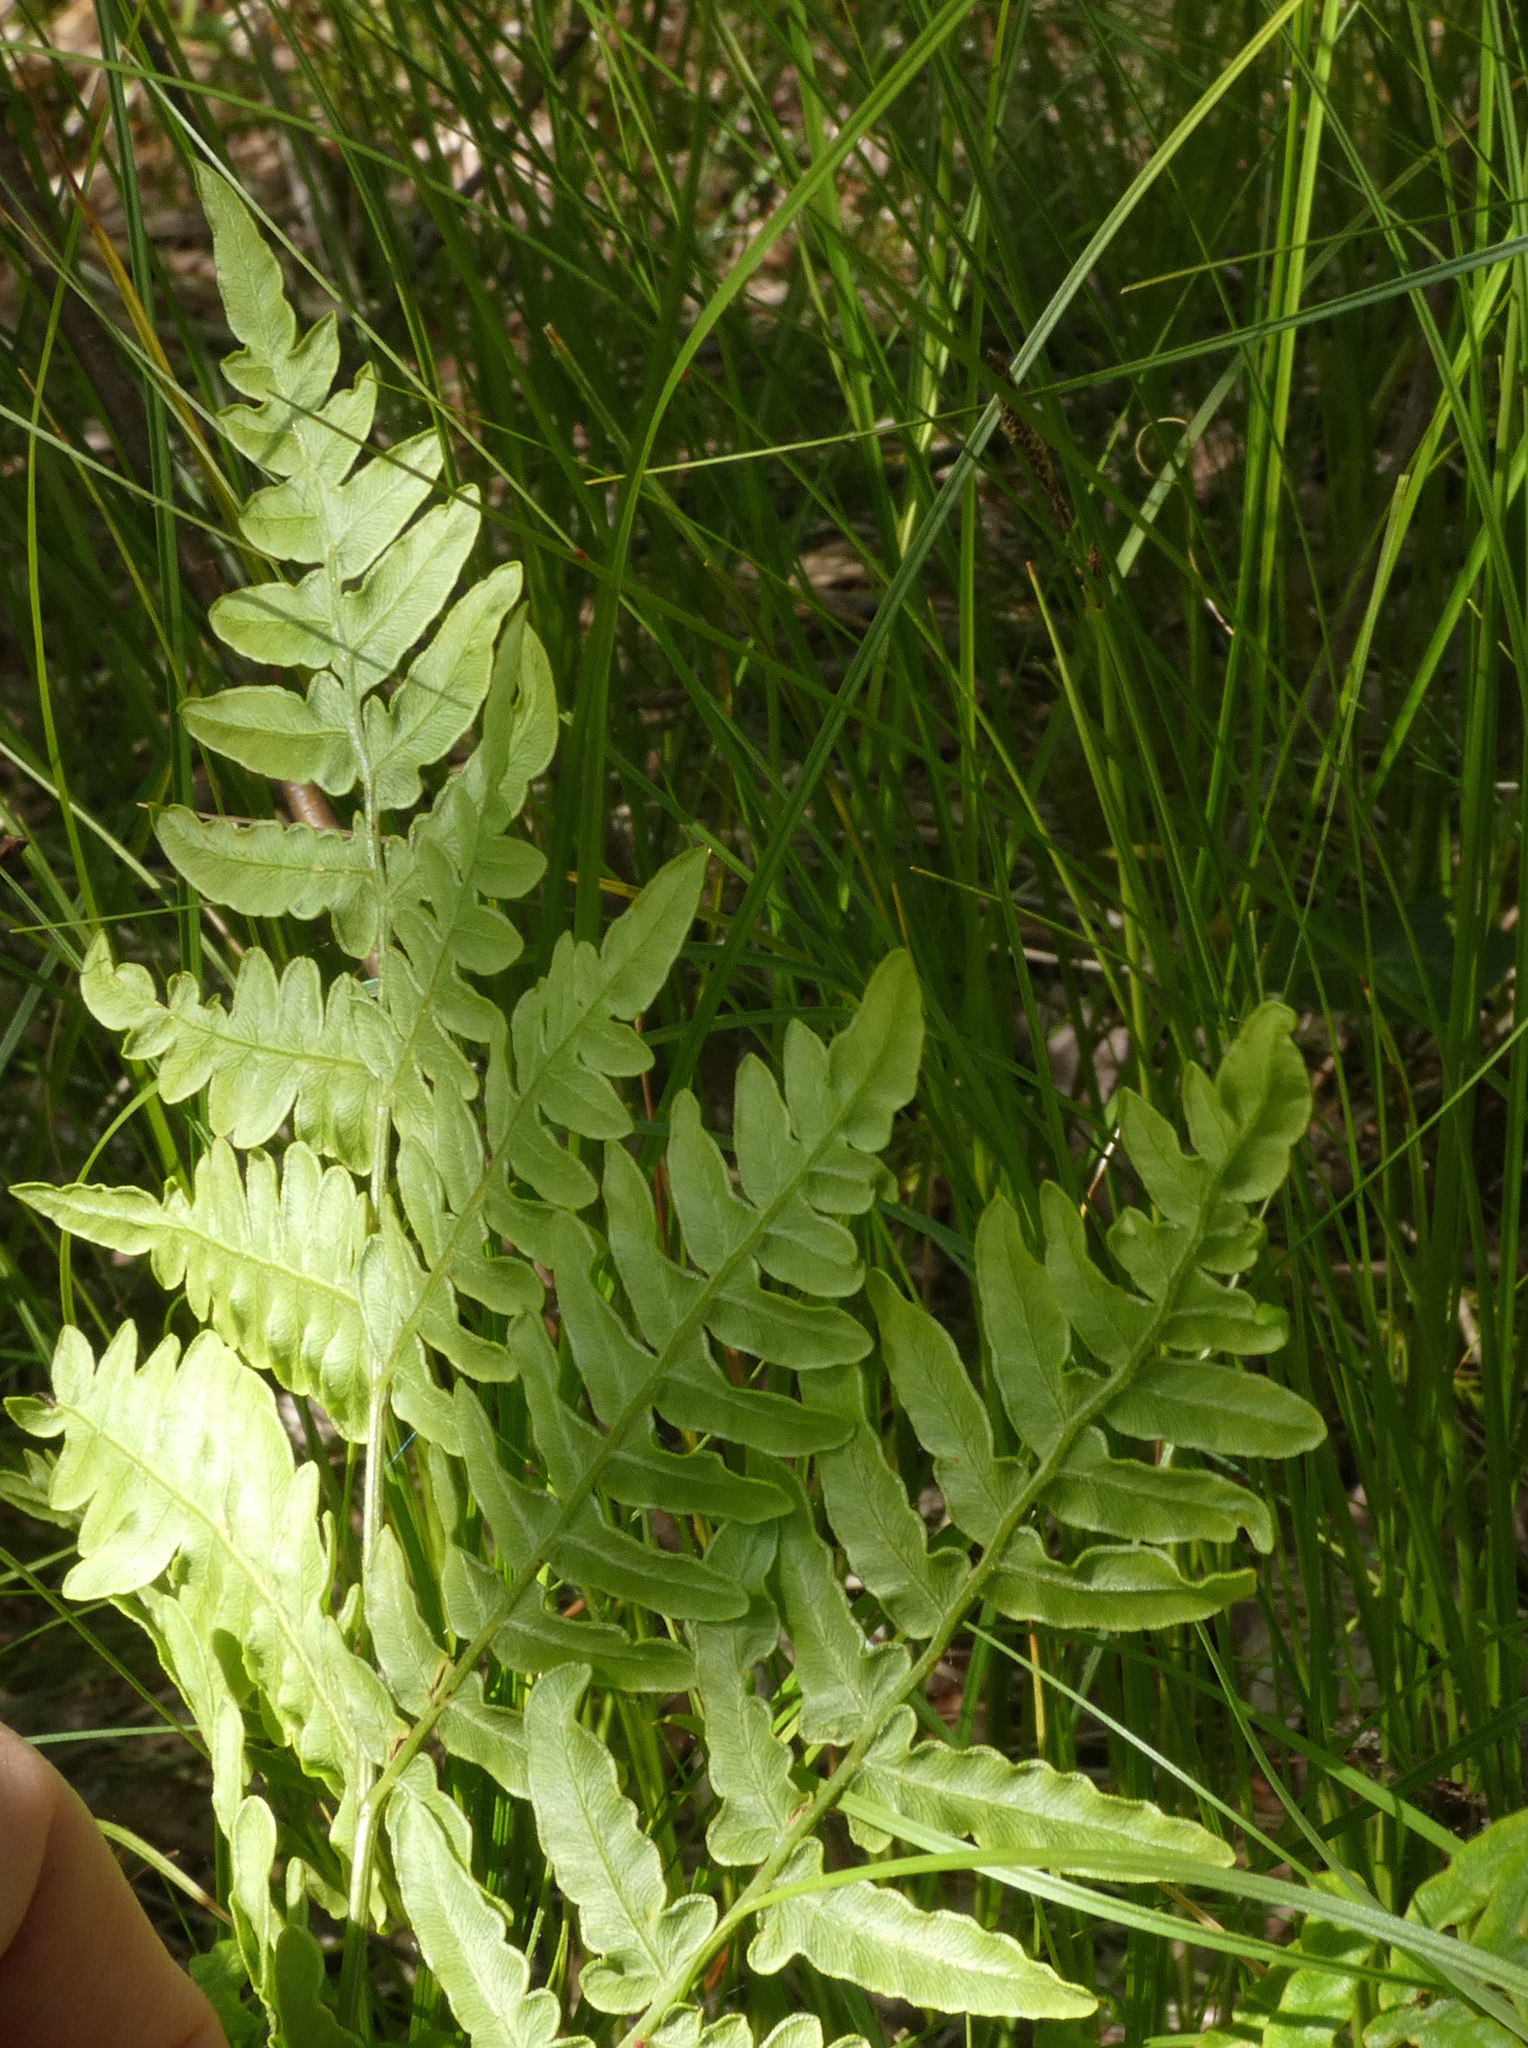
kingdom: Plantae
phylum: Tracheophyta
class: Polypodiopsida
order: Polypodiales
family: Dennstaedtiaceae
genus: Pteridium
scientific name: Pteridium aquilinum
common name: Bracken
